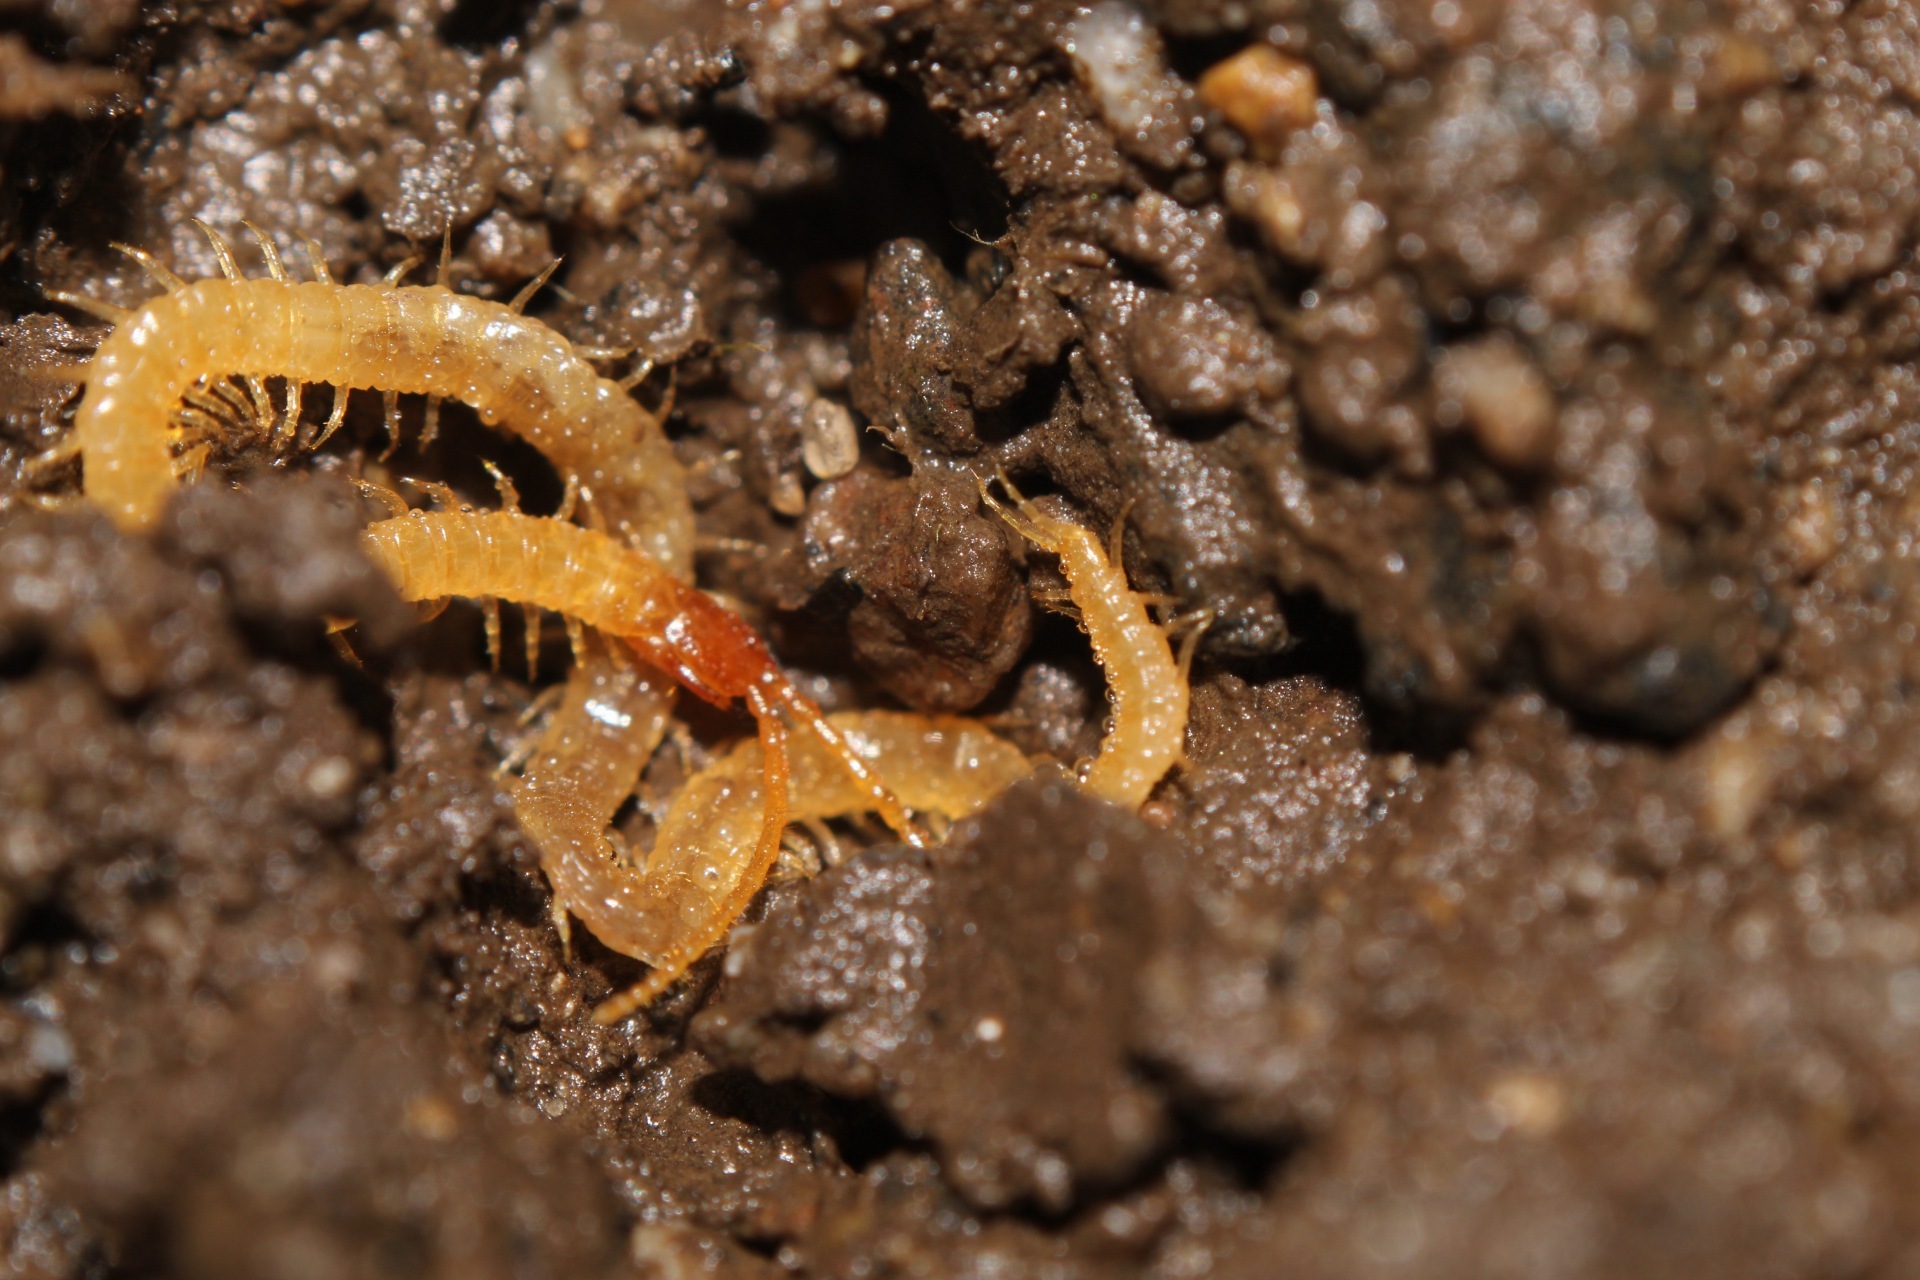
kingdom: Animalia
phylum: Arthropoda
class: Chilopoda
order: Geophilomorpha
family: Geophilidae
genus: Geophilus
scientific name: Geophilus flavus
